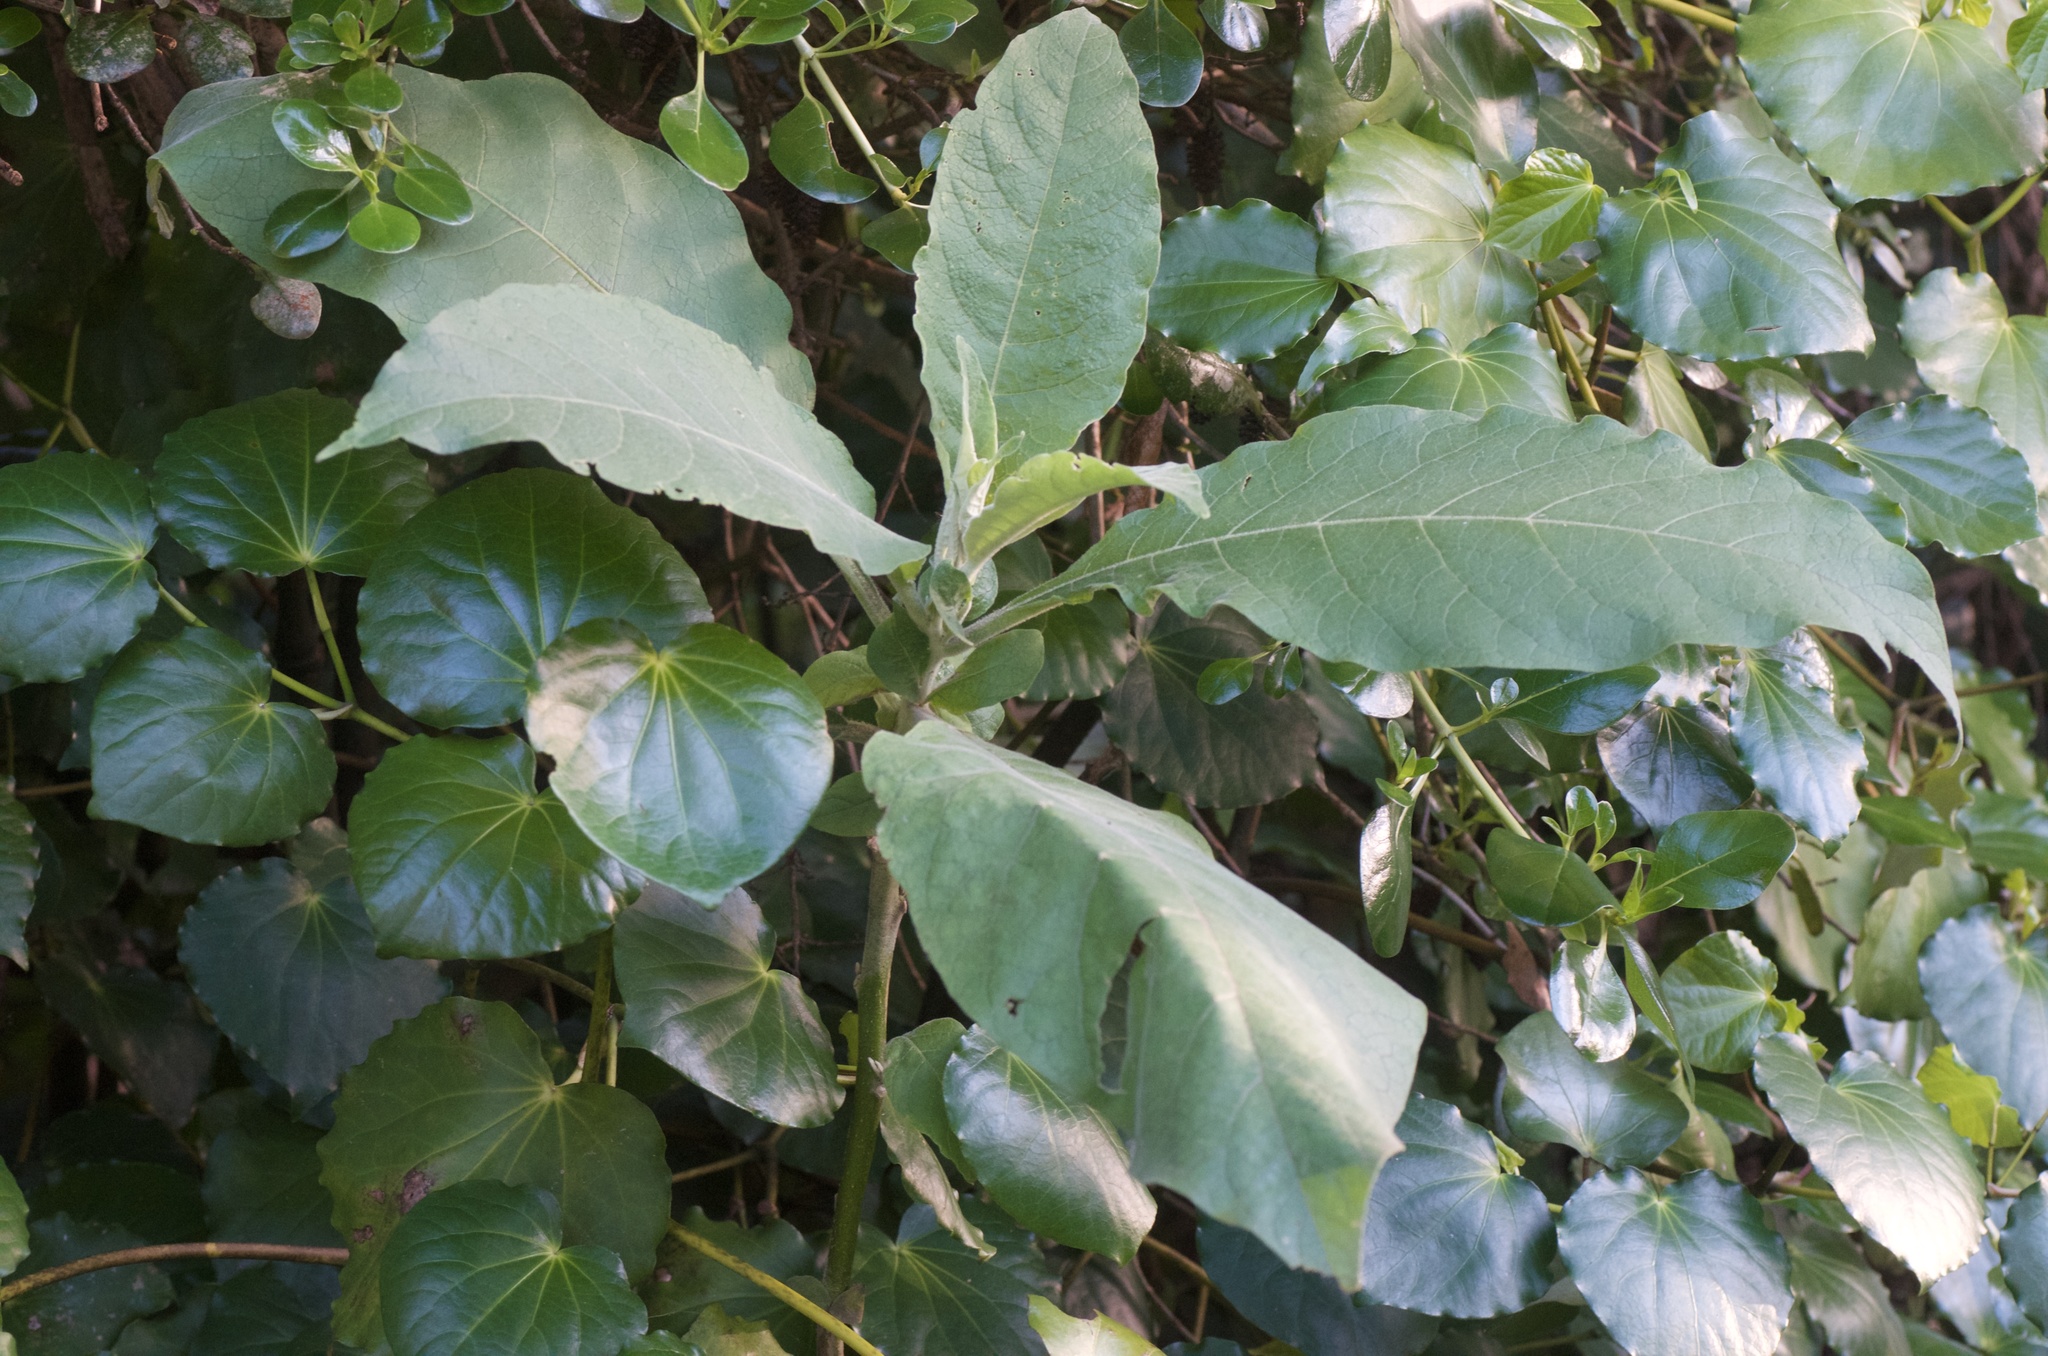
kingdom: Plantae
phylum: Tracheophyta
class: Magnoliopsida
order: Solanales
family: Solanaceae
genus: Solanum
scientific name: Solanum mauritianum
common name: Earleaf nightshade
